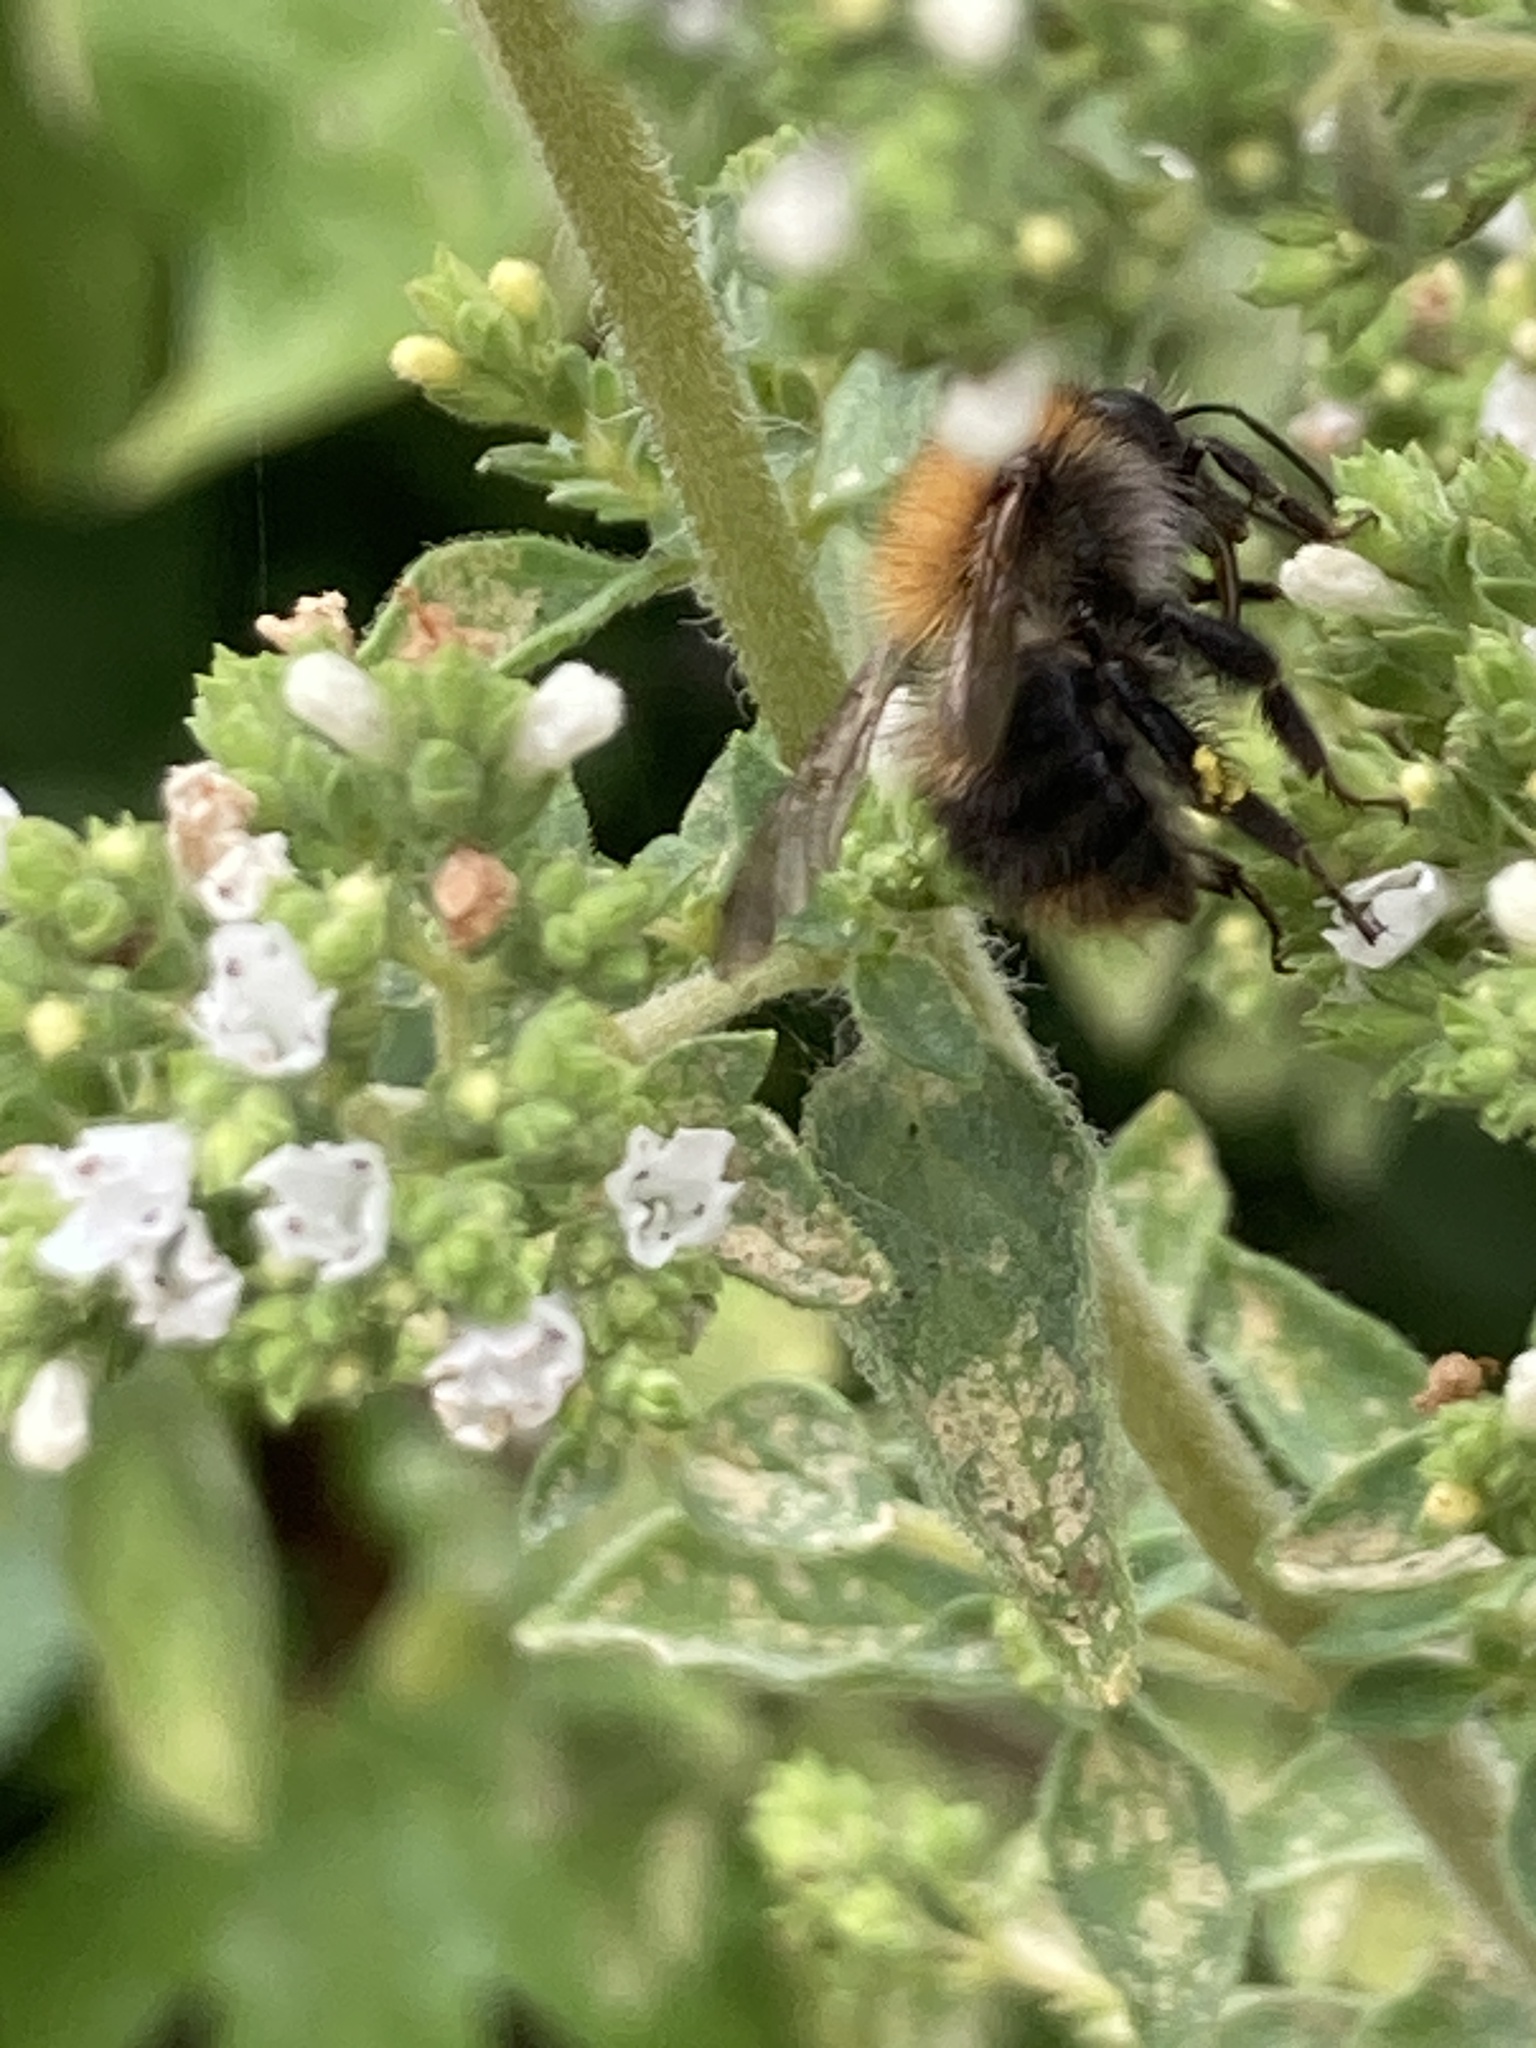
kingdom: Animalia
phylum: Arthropoda
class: Insecta
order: Hymenoptera
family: Apidae
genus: Bombus
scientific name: Bombus pascuorum
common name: Common carder bee
